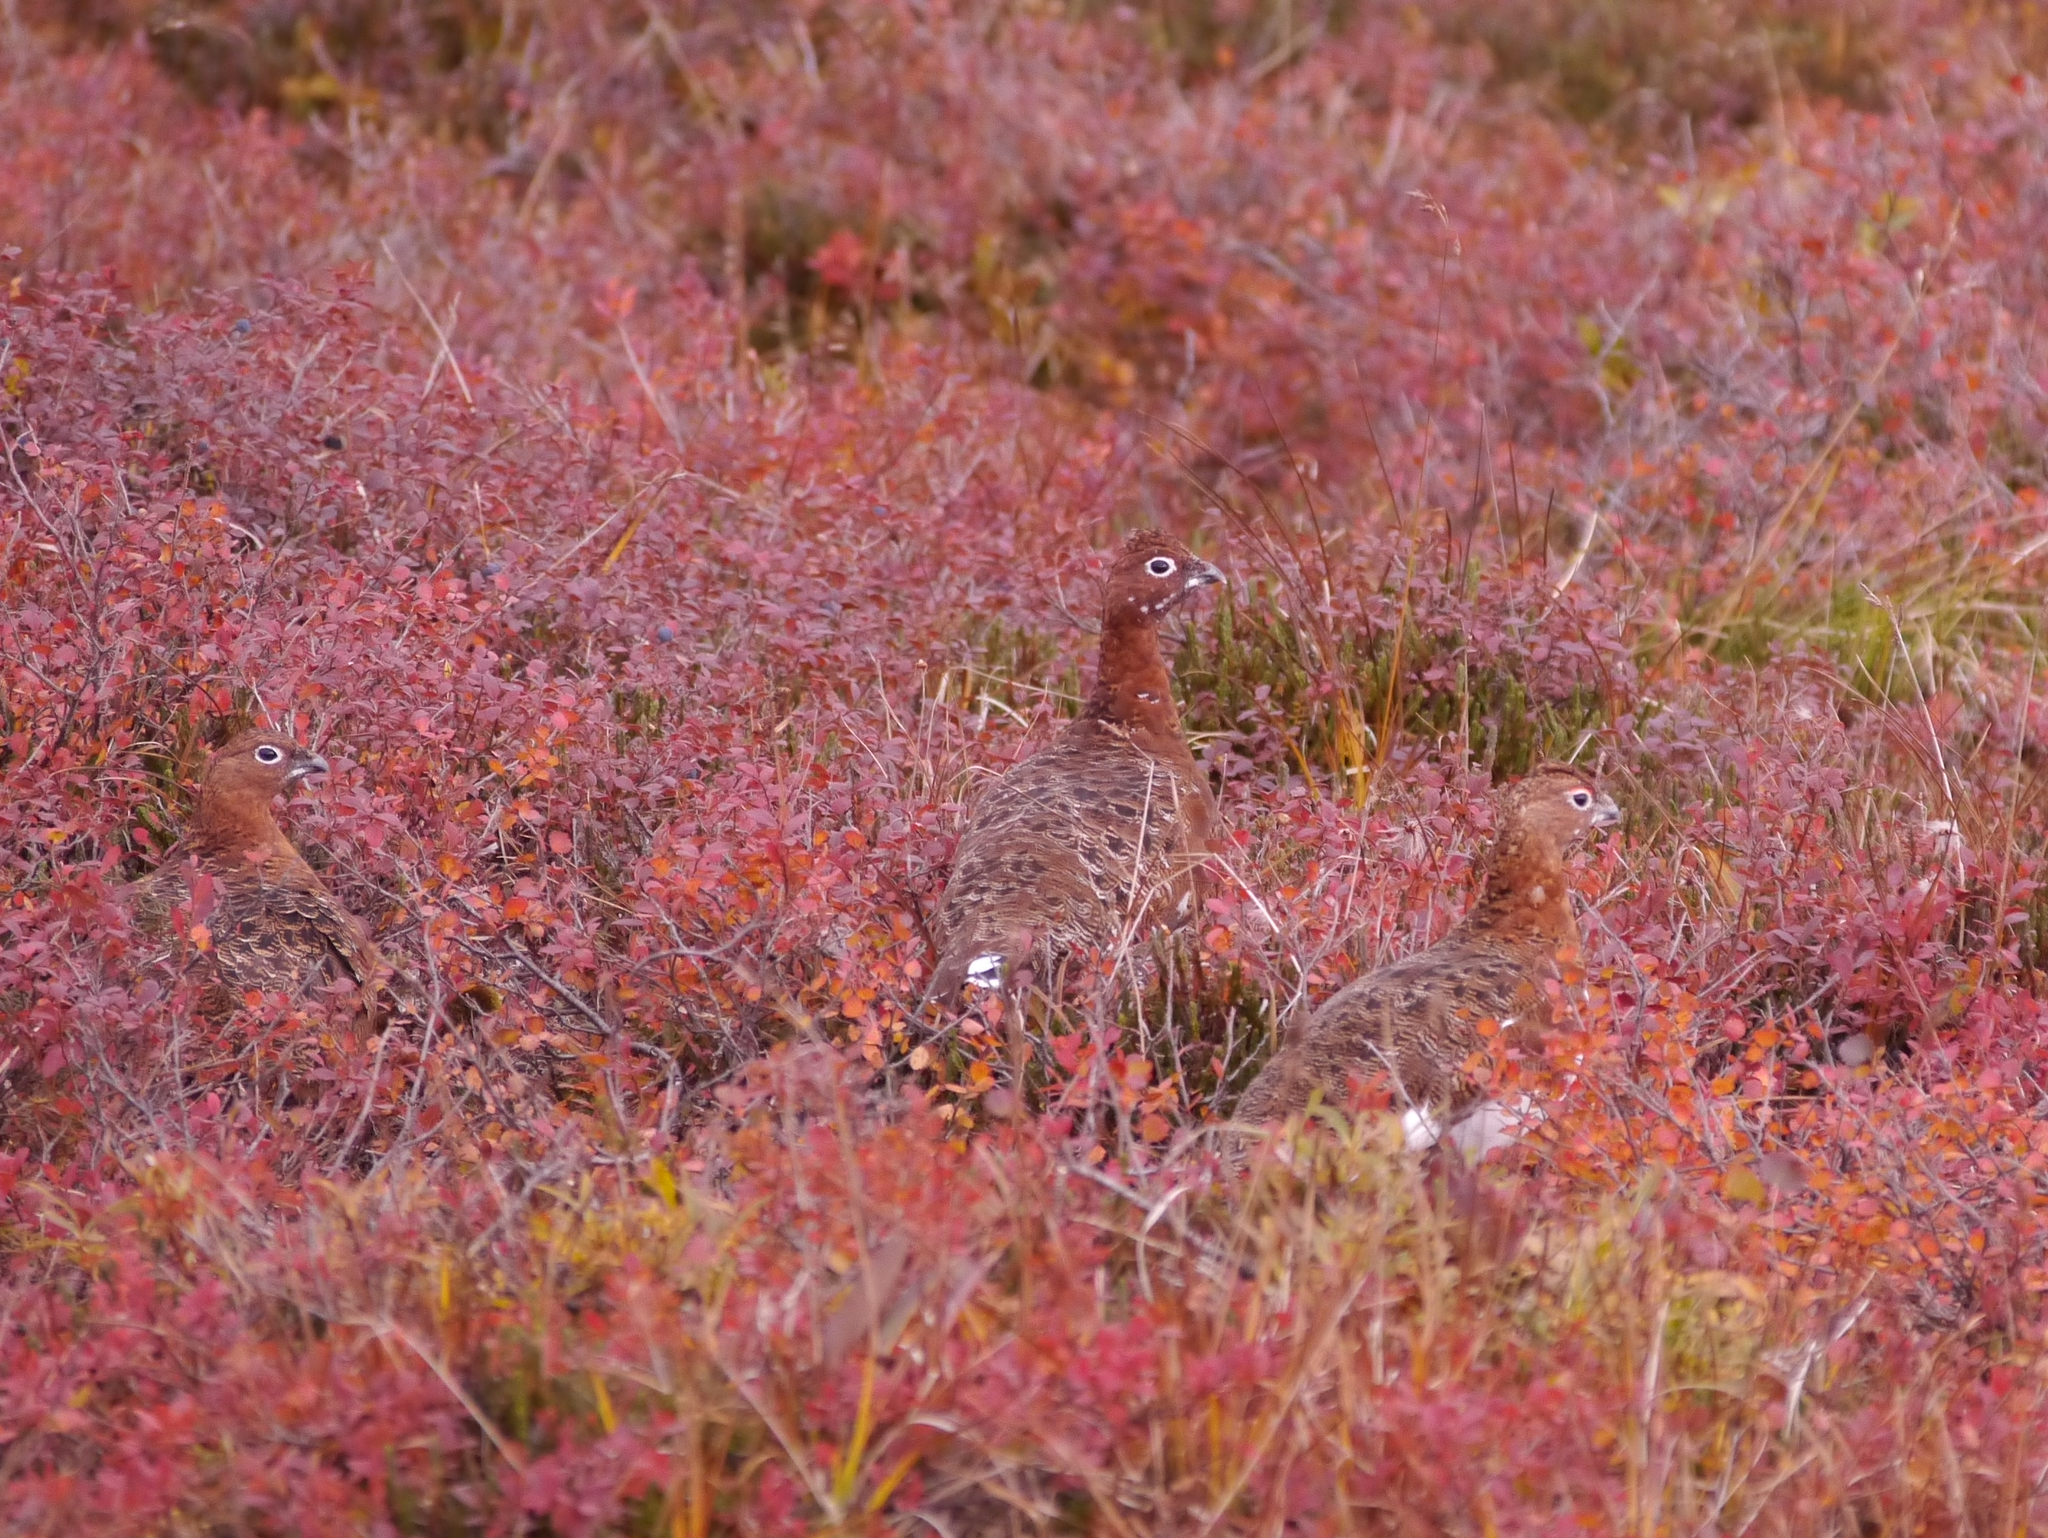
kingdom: Animalia
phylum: Chordata
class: Aves
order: Galliformes
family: Phasianidae
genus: Lagopus
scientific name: Lagopus lagopus
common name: Willow ptarmigan
